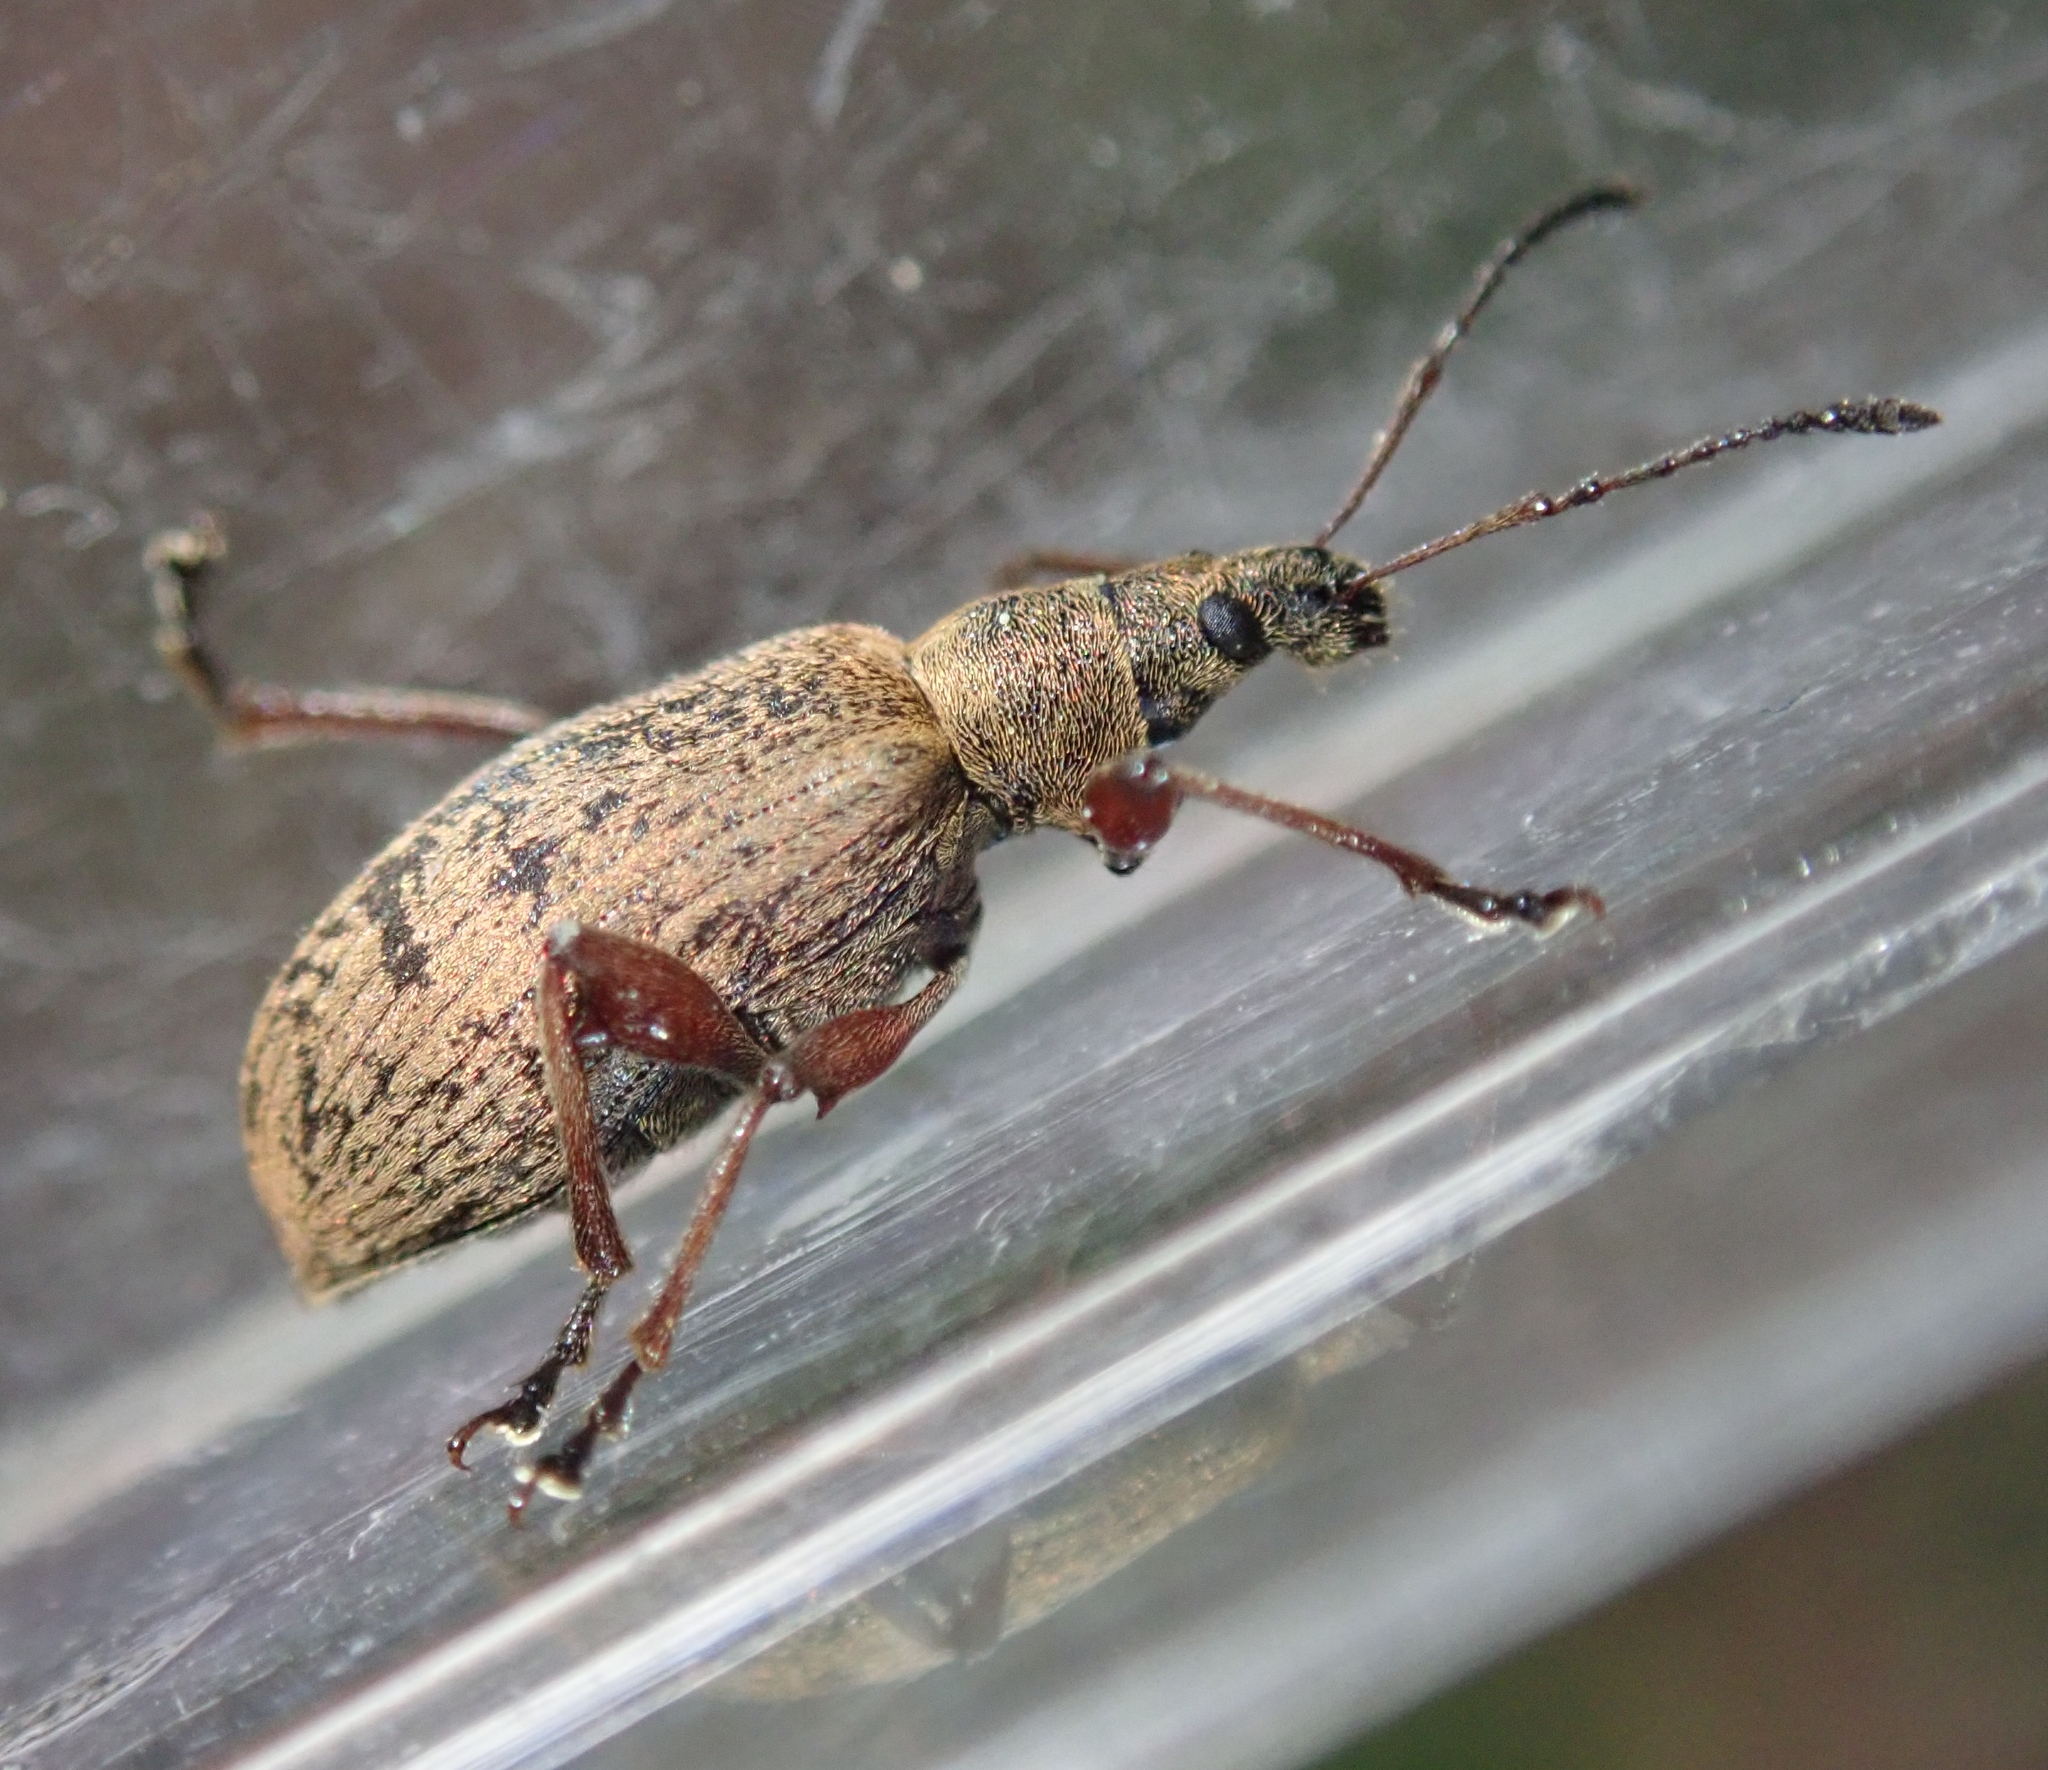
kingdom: Animalia
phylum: Arthropoda
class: Insecta
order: Coleoptera
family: Curculionidae
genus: Phyllobius
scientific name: Phyllobius glaucus
